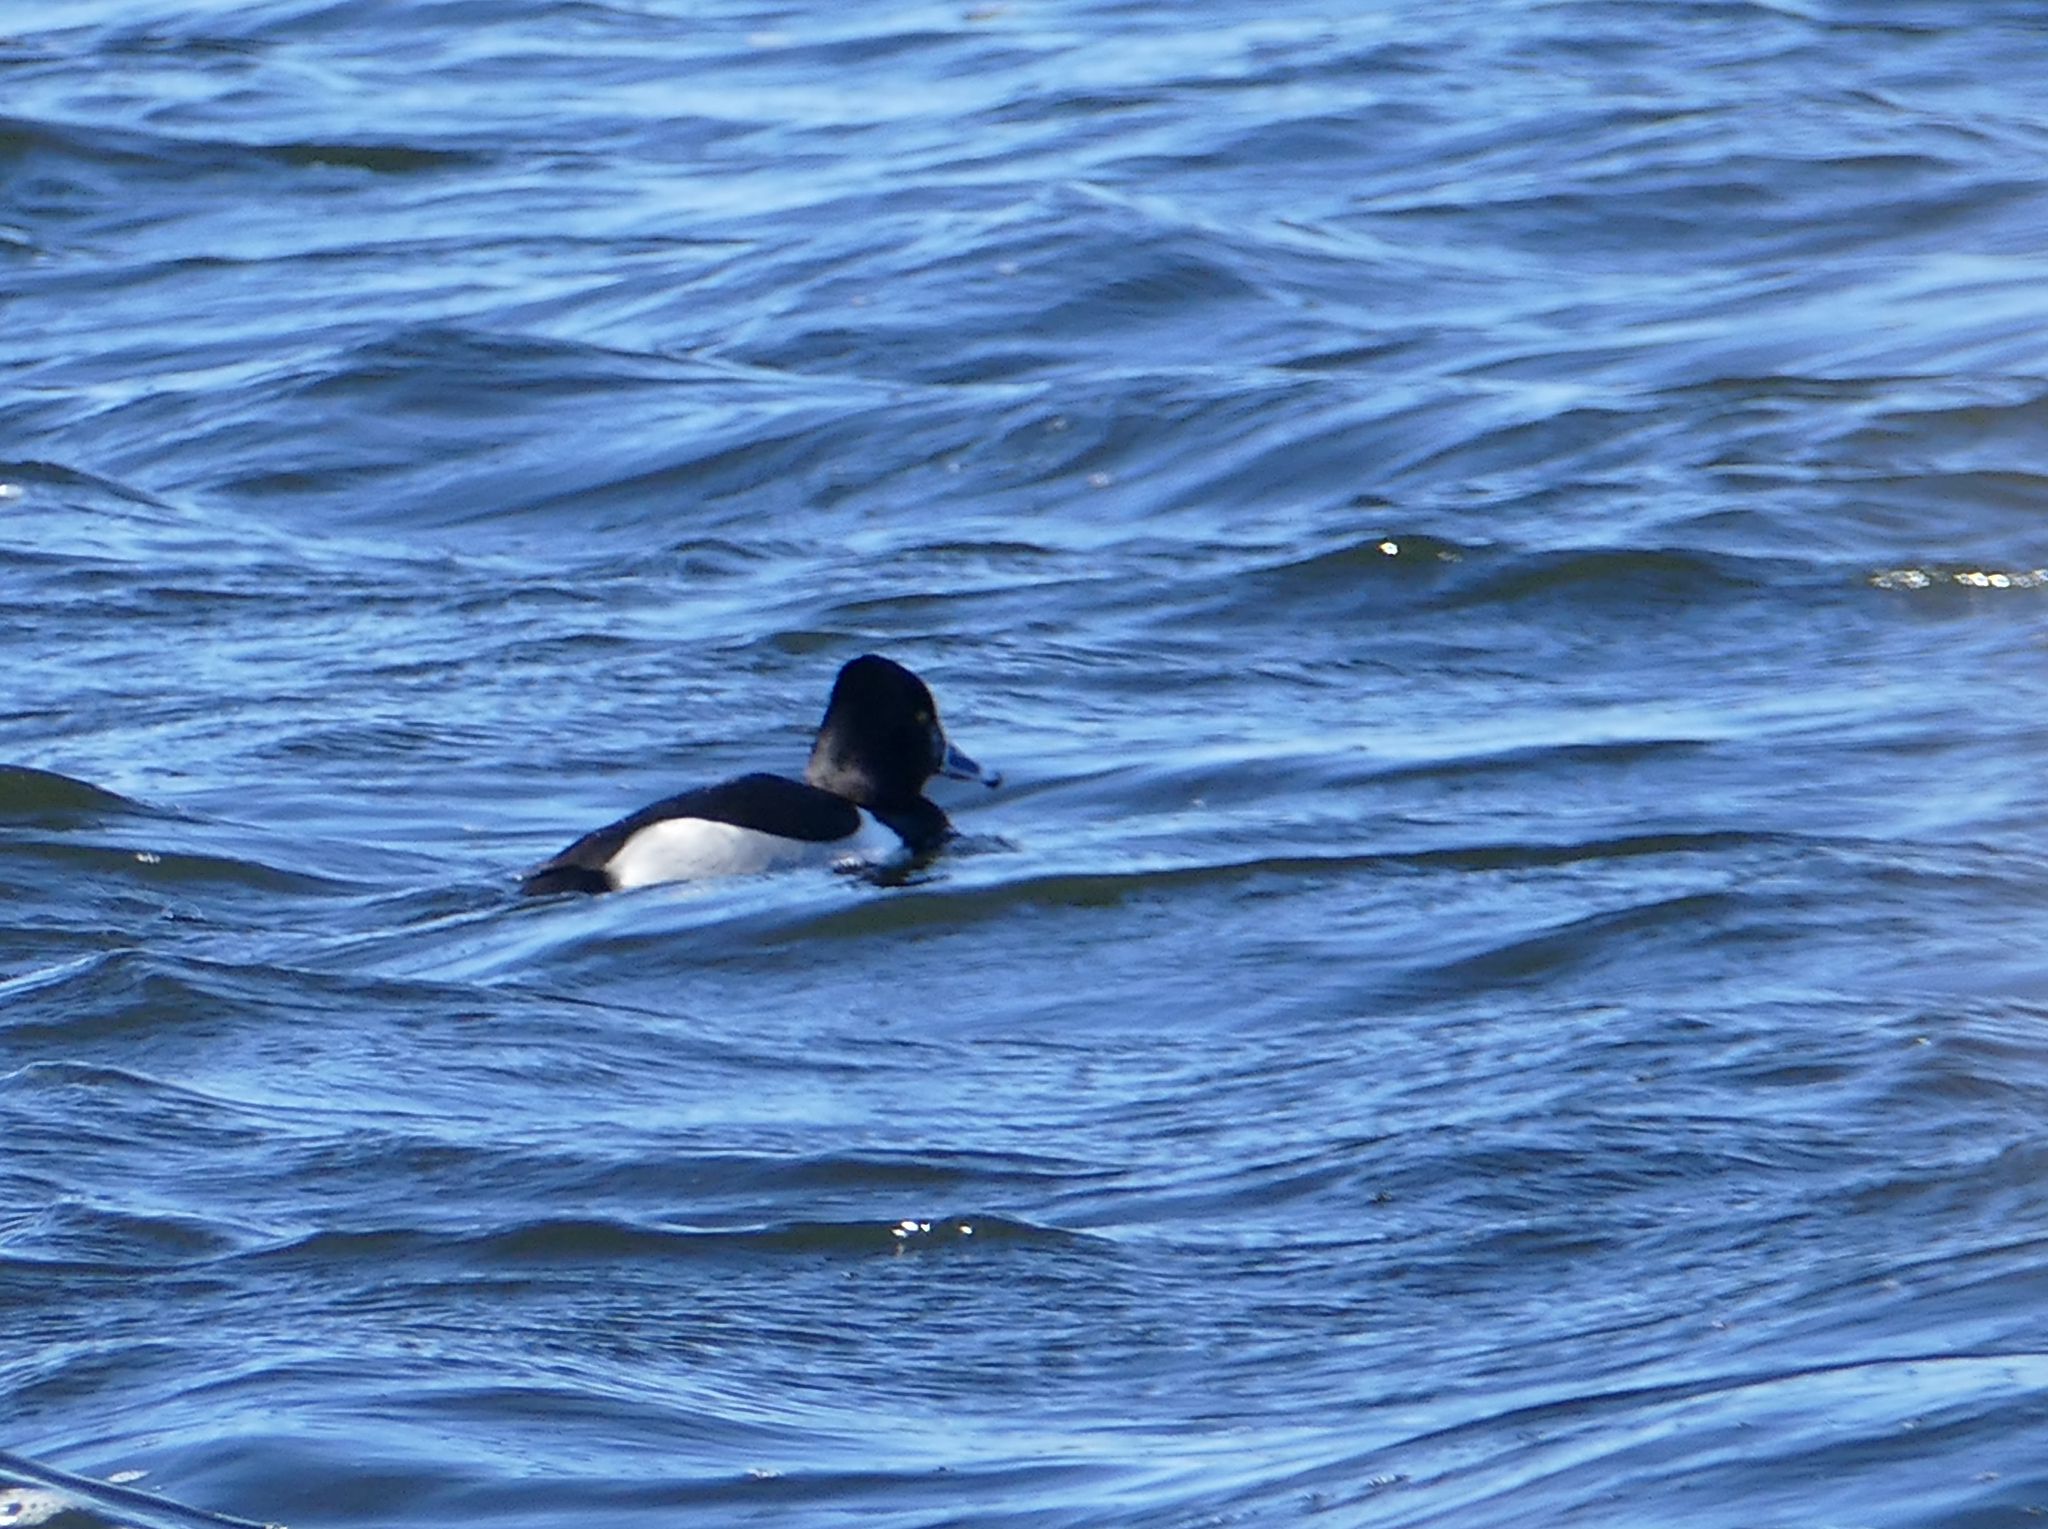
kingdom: Animalia
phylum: Chordata
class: Aves
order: Anseriformes
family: Anatidae
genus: Aythya
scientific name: Aythya collaris
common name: Ring-necked duck
